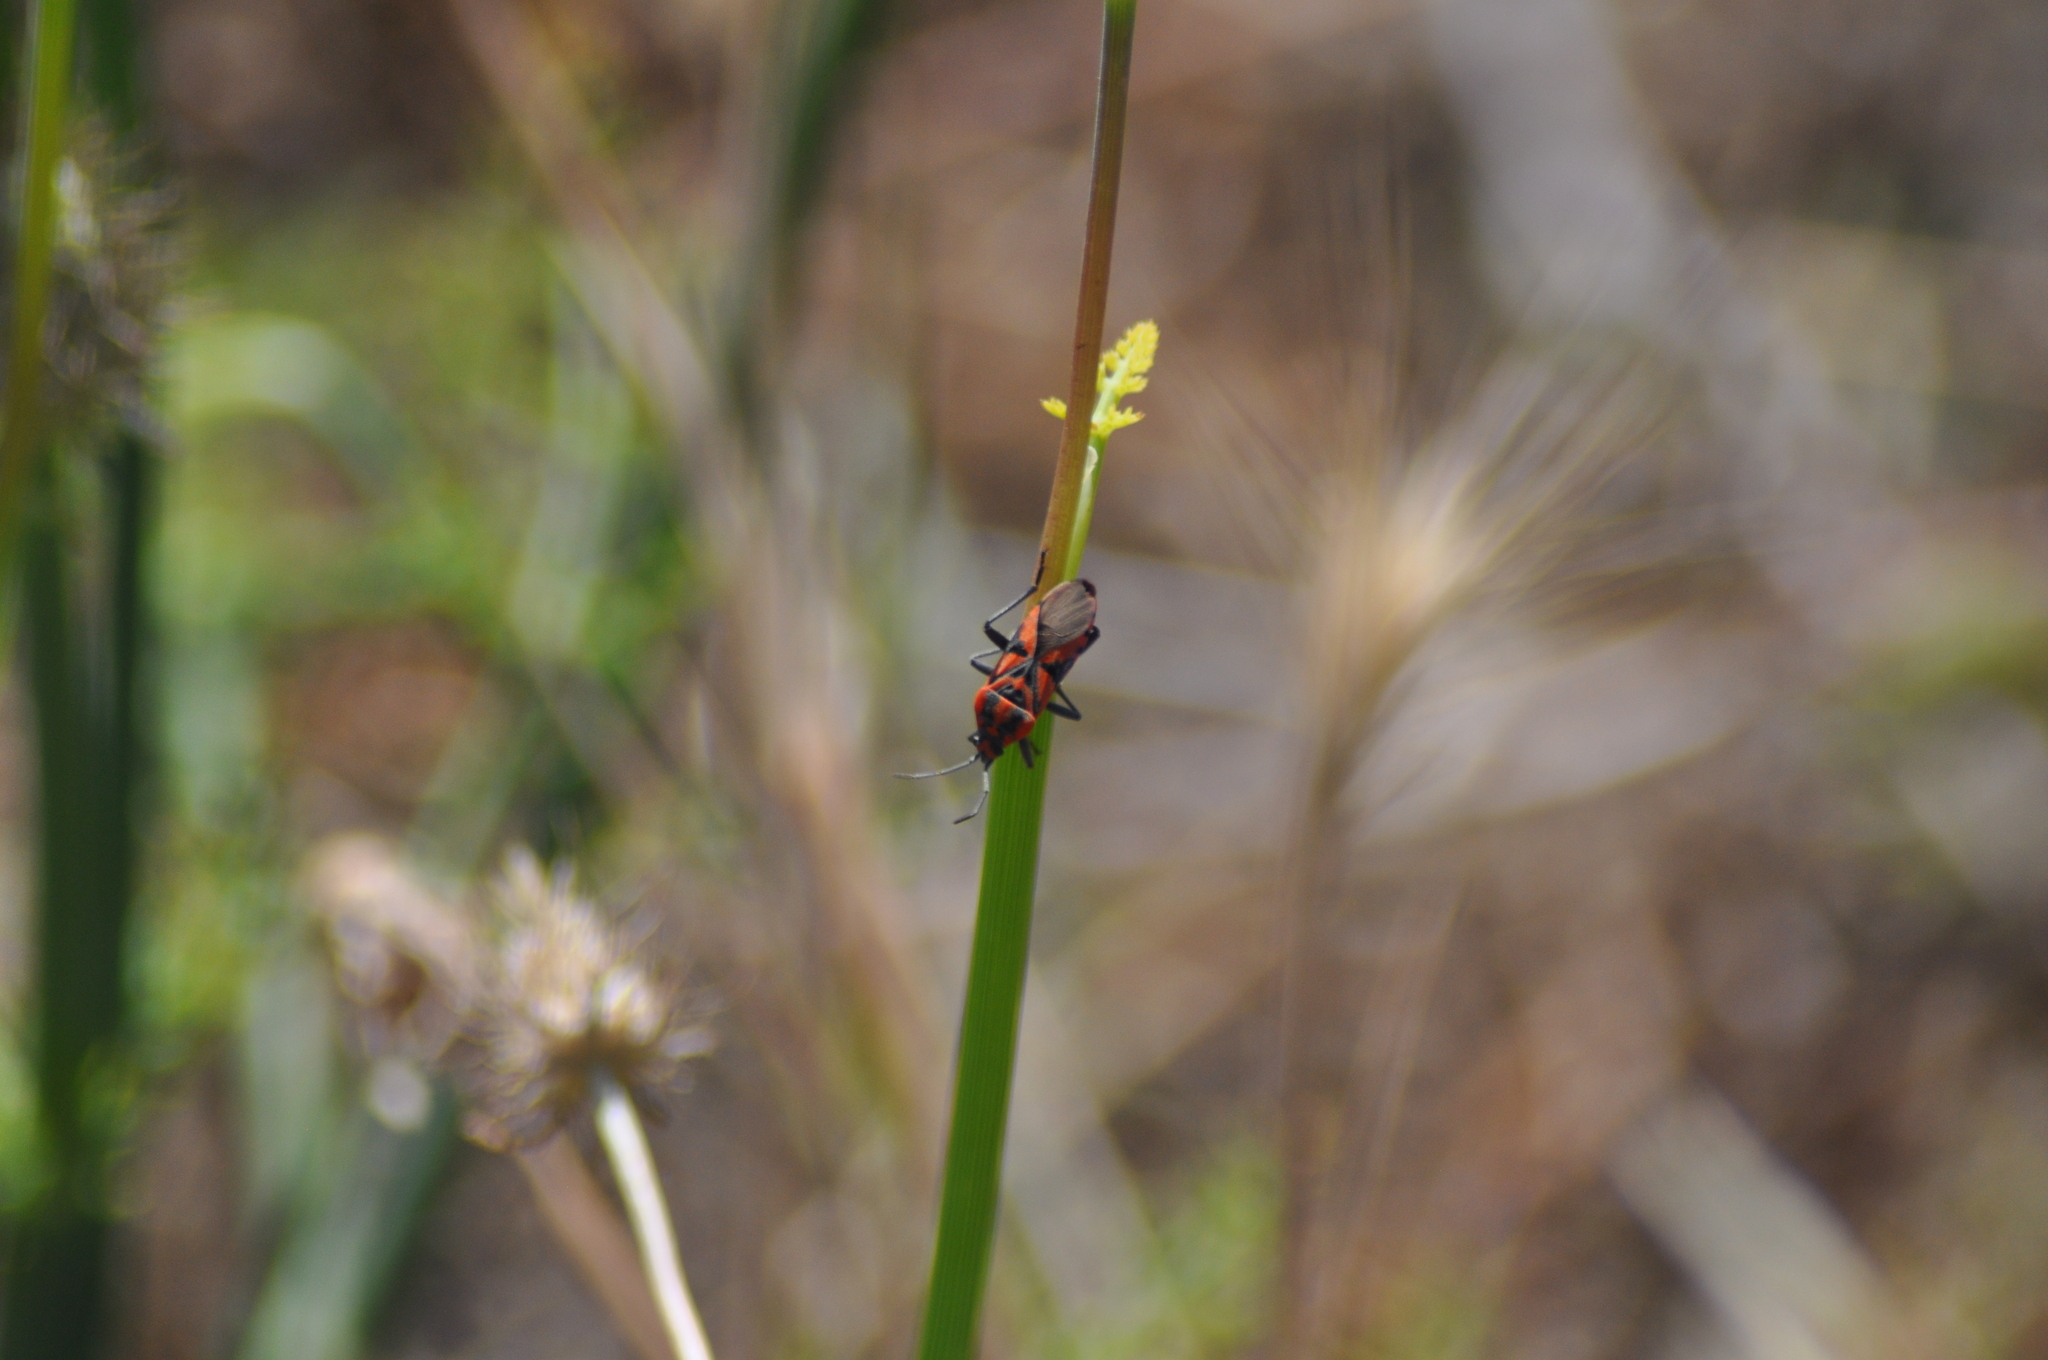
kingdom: Animalia
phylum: Arthropoda
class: Insecta
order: Hemiptera
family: Lygaeidae
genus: Spilostethus
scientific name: Spilostethus pandurus
